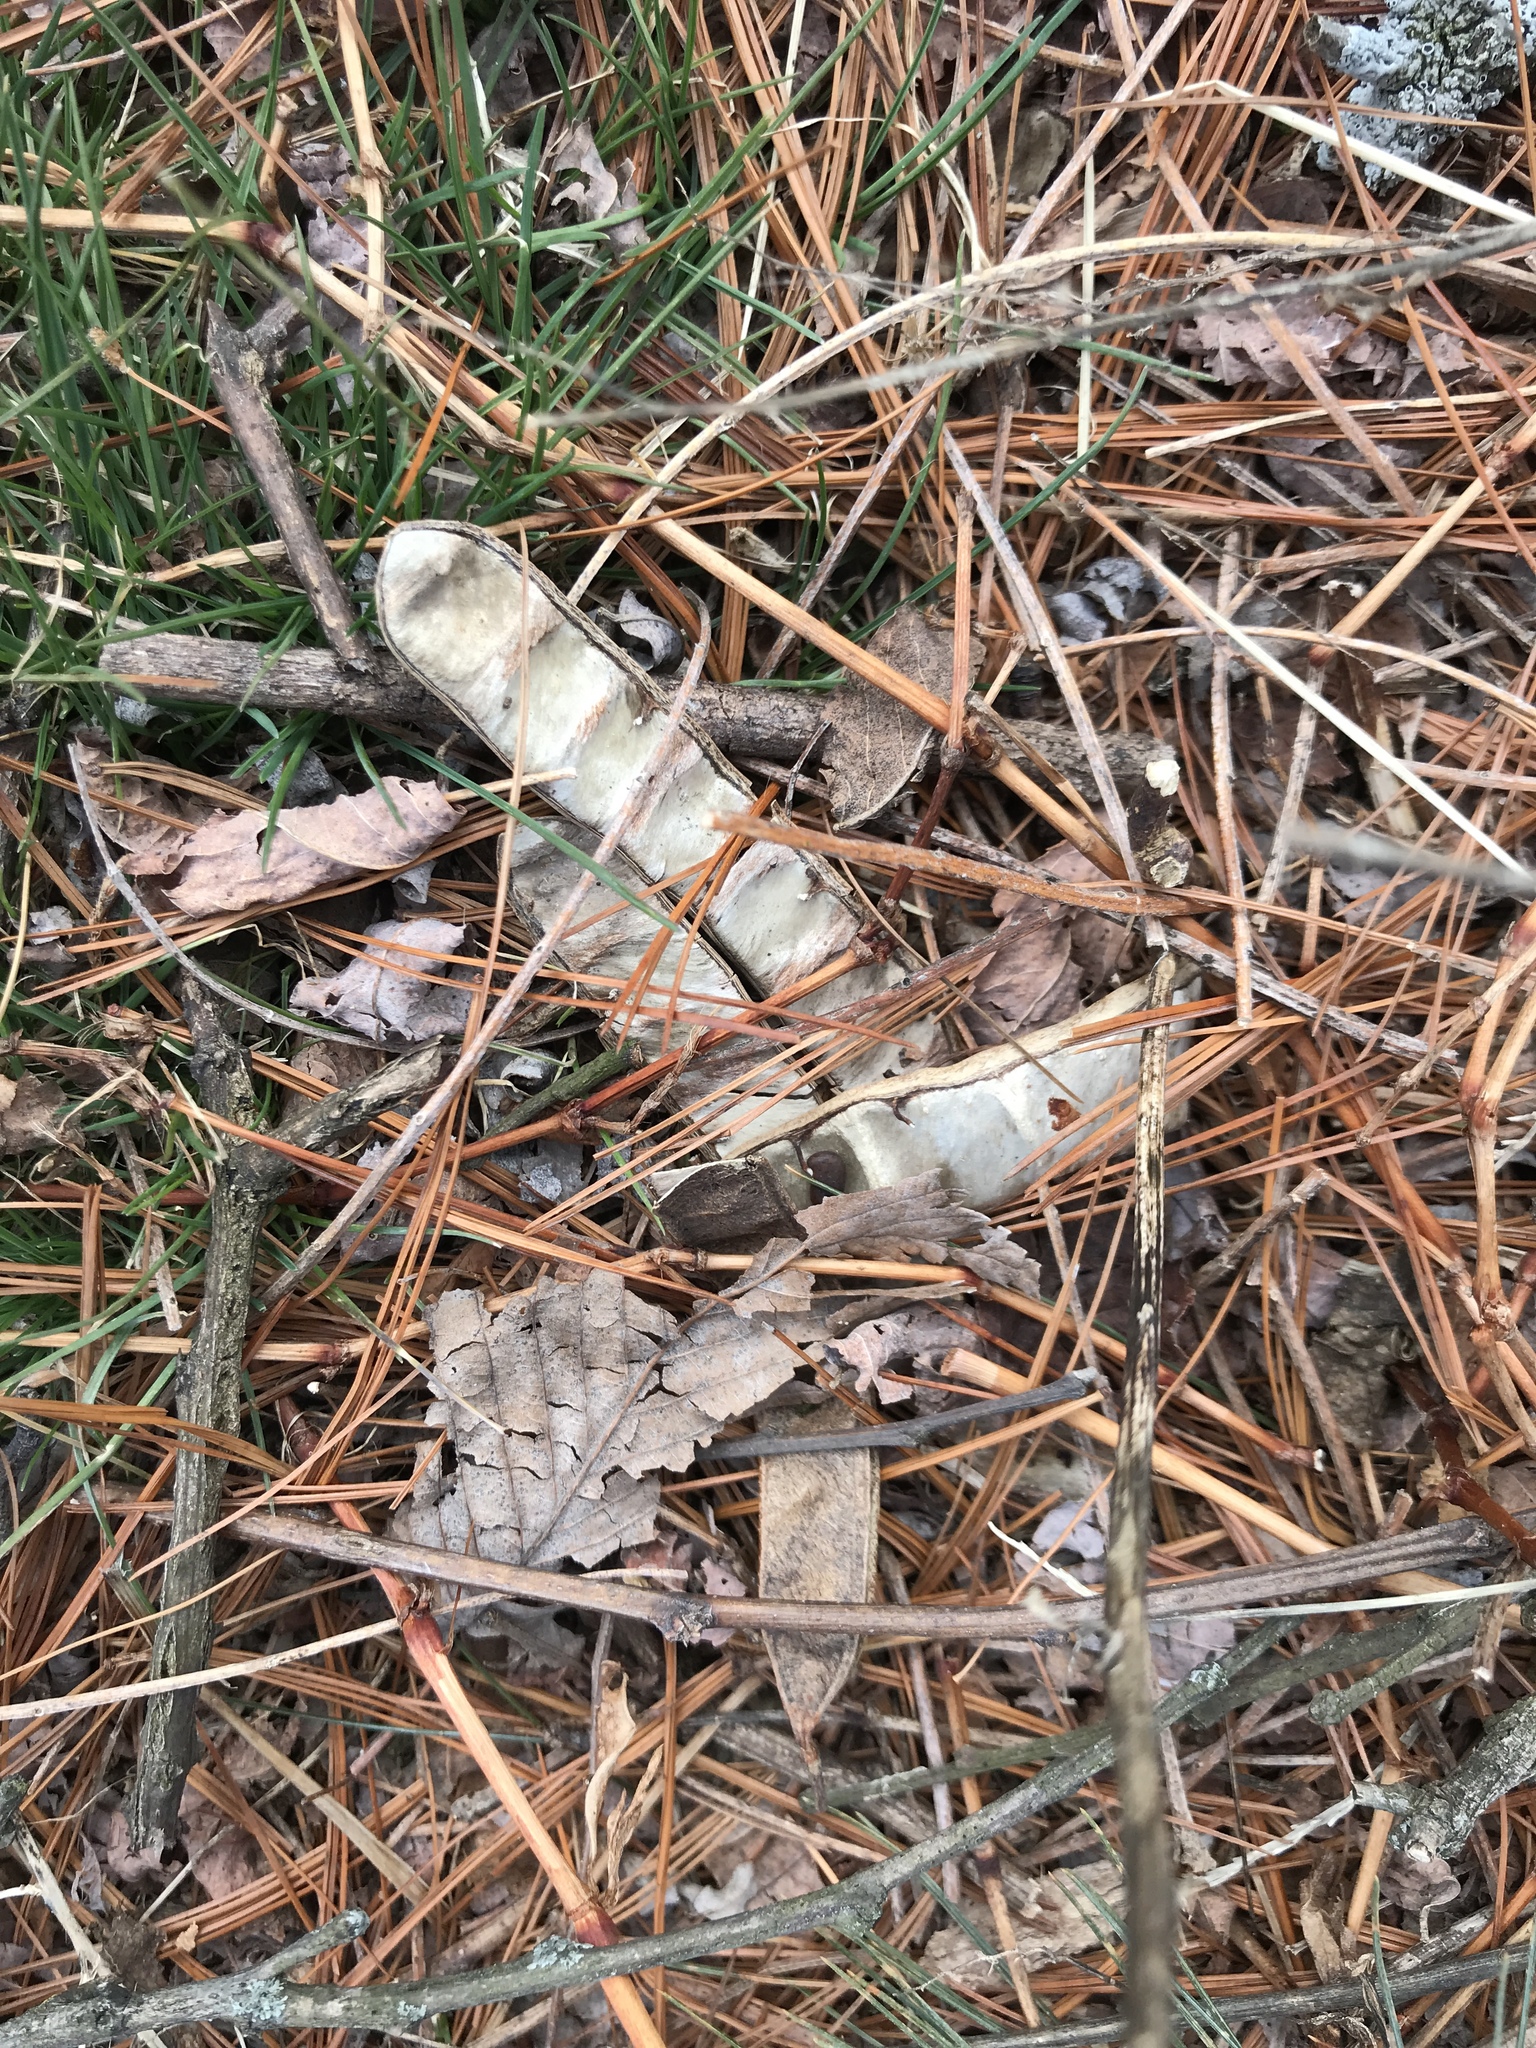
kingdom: Plantae
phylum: Tracheophyta
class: Magnoliopsida
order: Fabales
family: Fabaceae
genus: Robinia
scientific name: Robinia pseudoacacia
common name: Black locust
